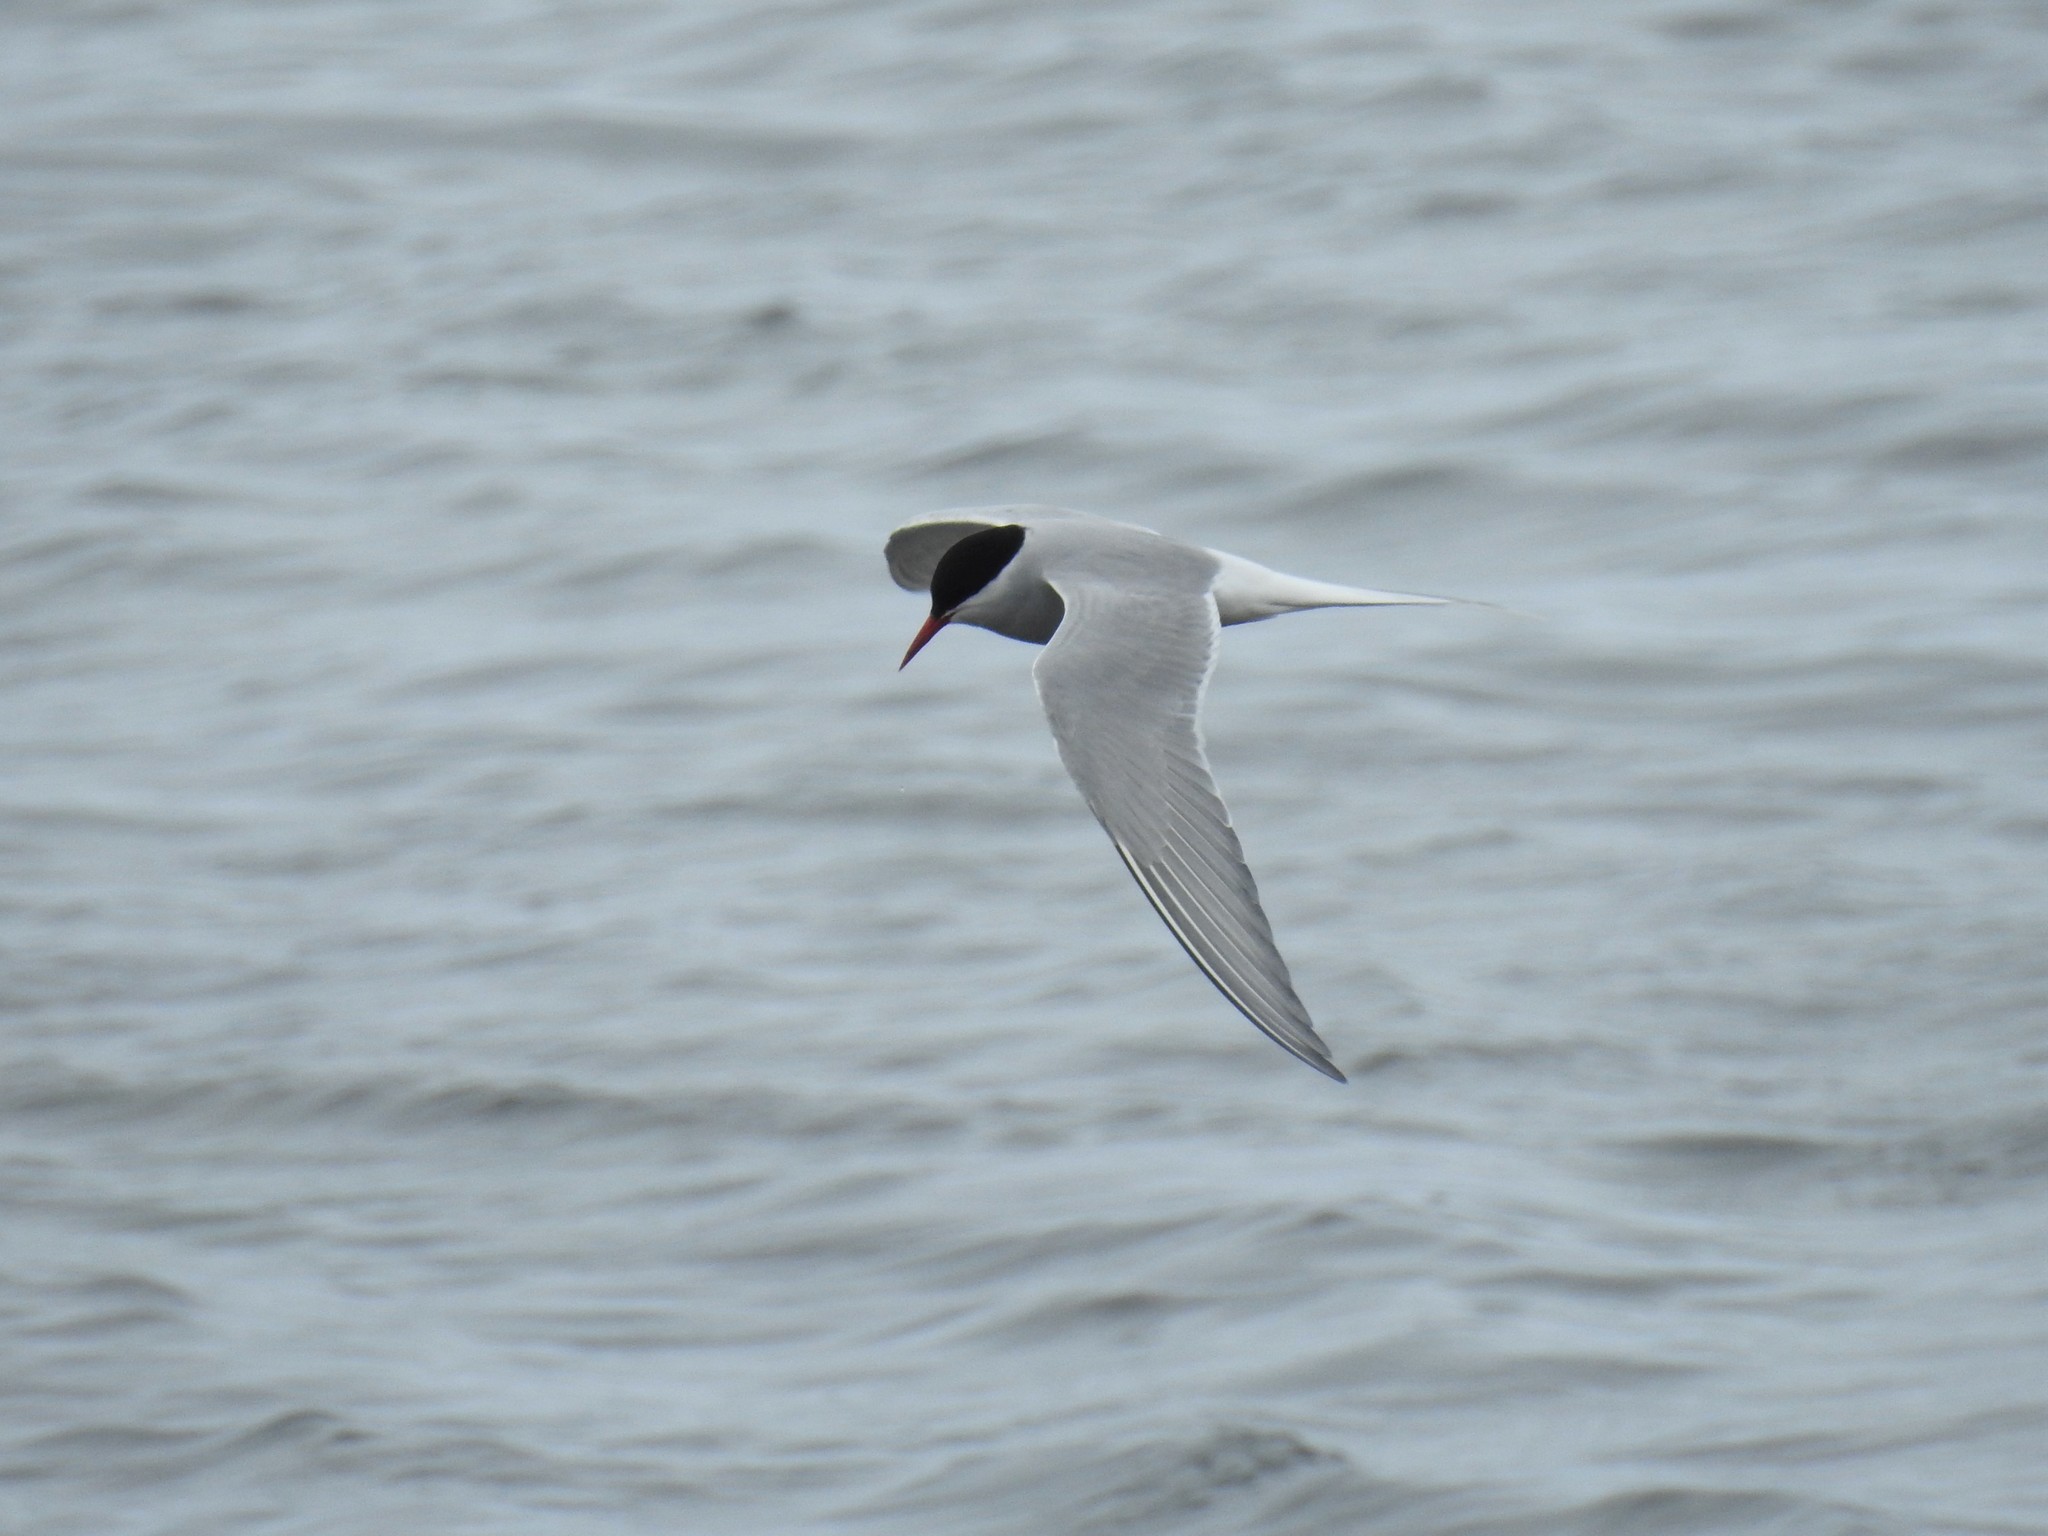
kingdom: Animalia
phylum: Chordata
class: Aves
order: Charadriiformes
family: Laridae
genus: Sterna
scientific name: Sterna paradisaea
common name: Arctic tern
